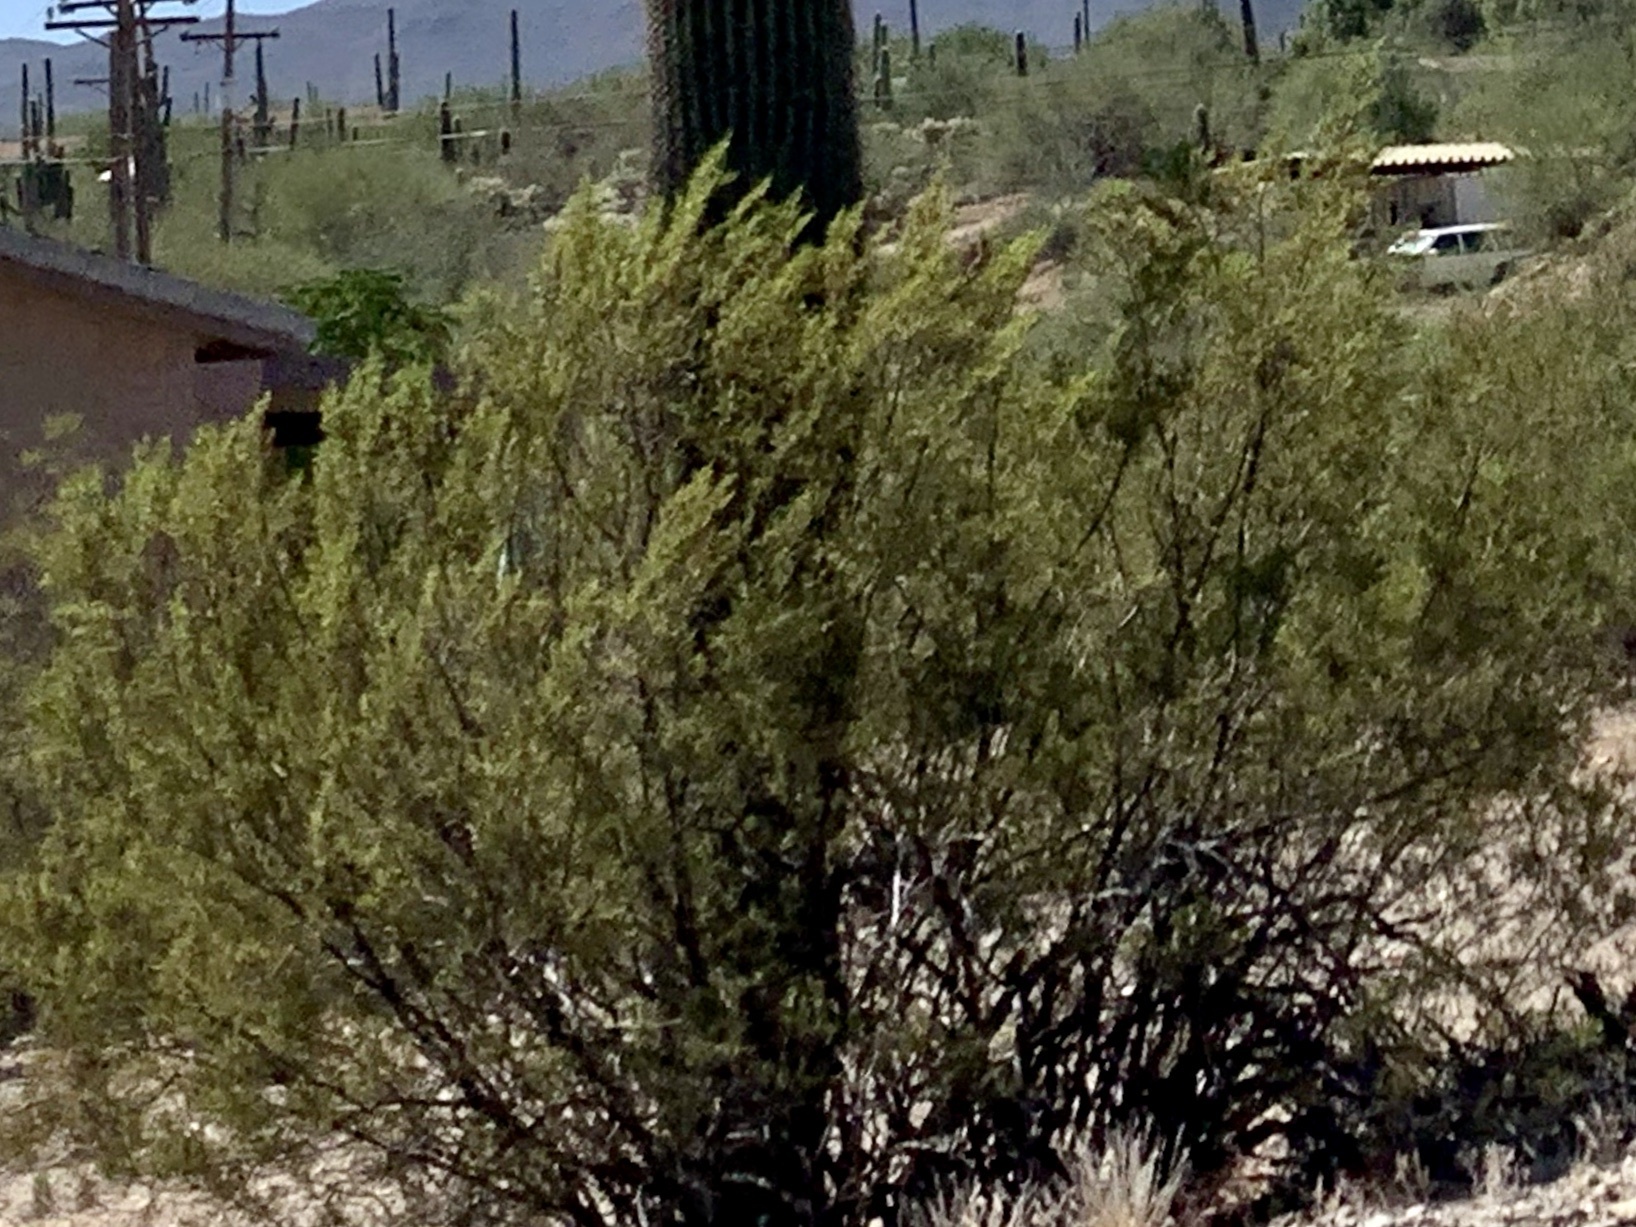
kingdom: Plantae
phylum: Tracheophyta
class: Magnoliopsida
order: Zygophyllales
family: Zygophyllaceae
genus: Larrea
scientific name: Larrea tridentata
